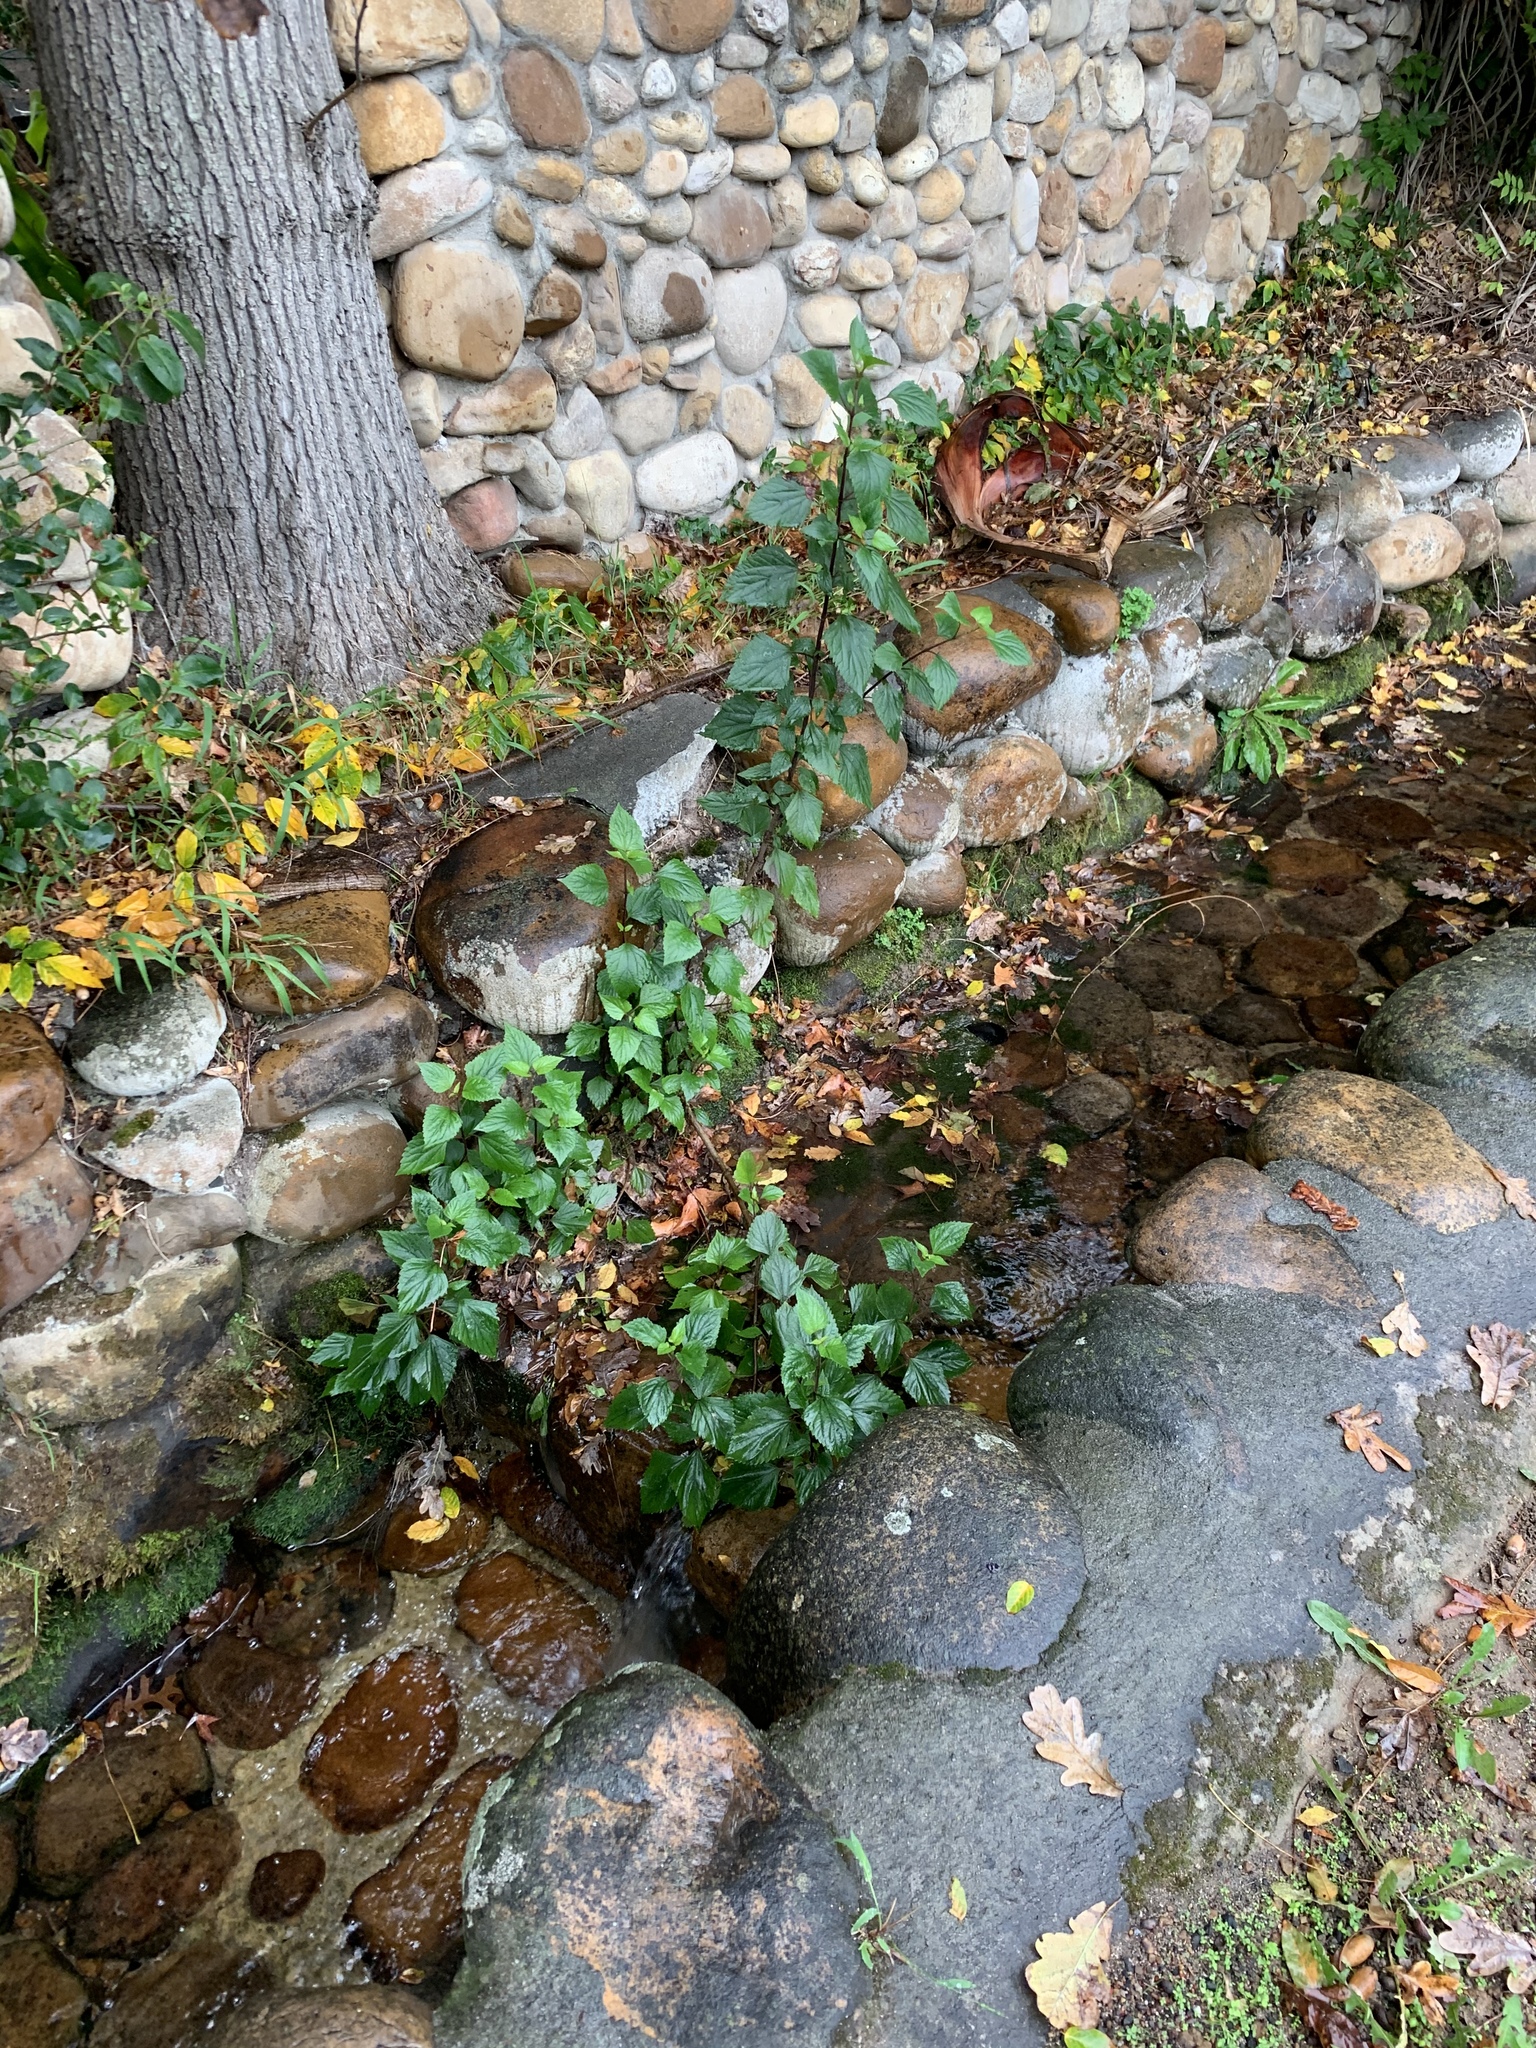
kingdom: Plantae
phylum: Tracheophyta
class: Magnoliopsida
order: Asterales
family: Asteraceae
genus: Ageratina
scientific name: Ageratina adenophora
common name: Sticky snakeroot
